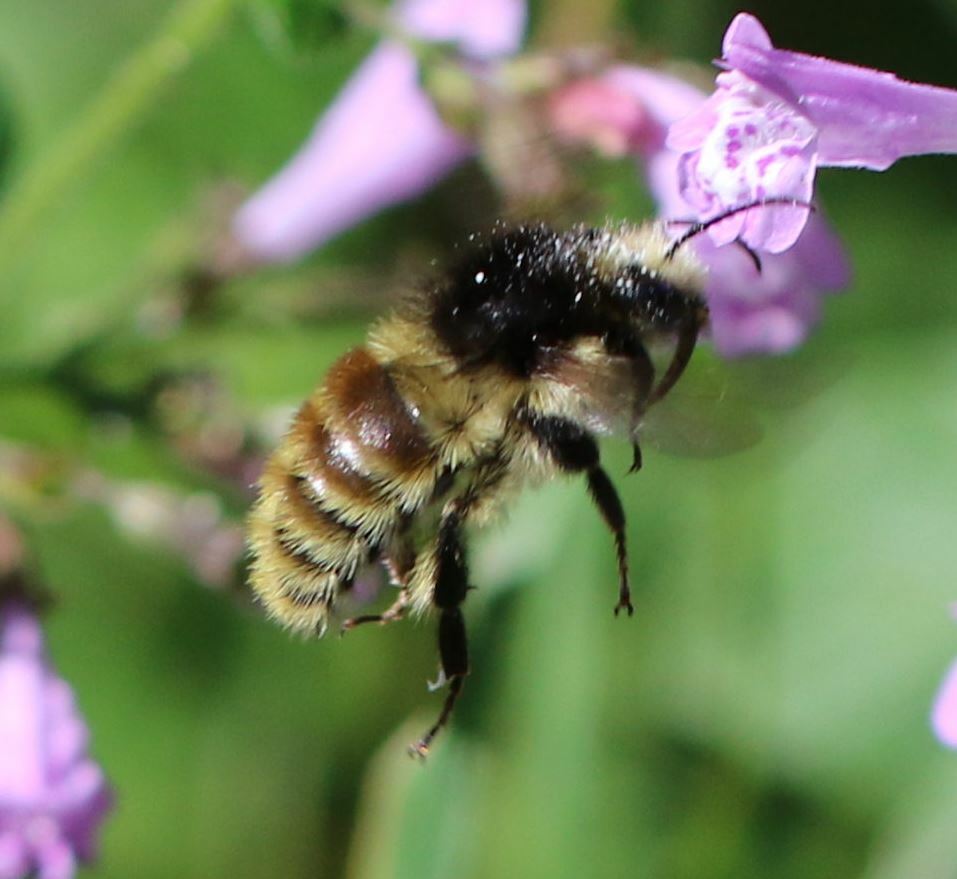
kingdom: Animalia
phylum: Arthropoda
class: Insecta
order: Hymenoptera
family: Apidae
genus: Bombus
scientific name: Bombus humilis
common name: Brown-banded carder-bee
